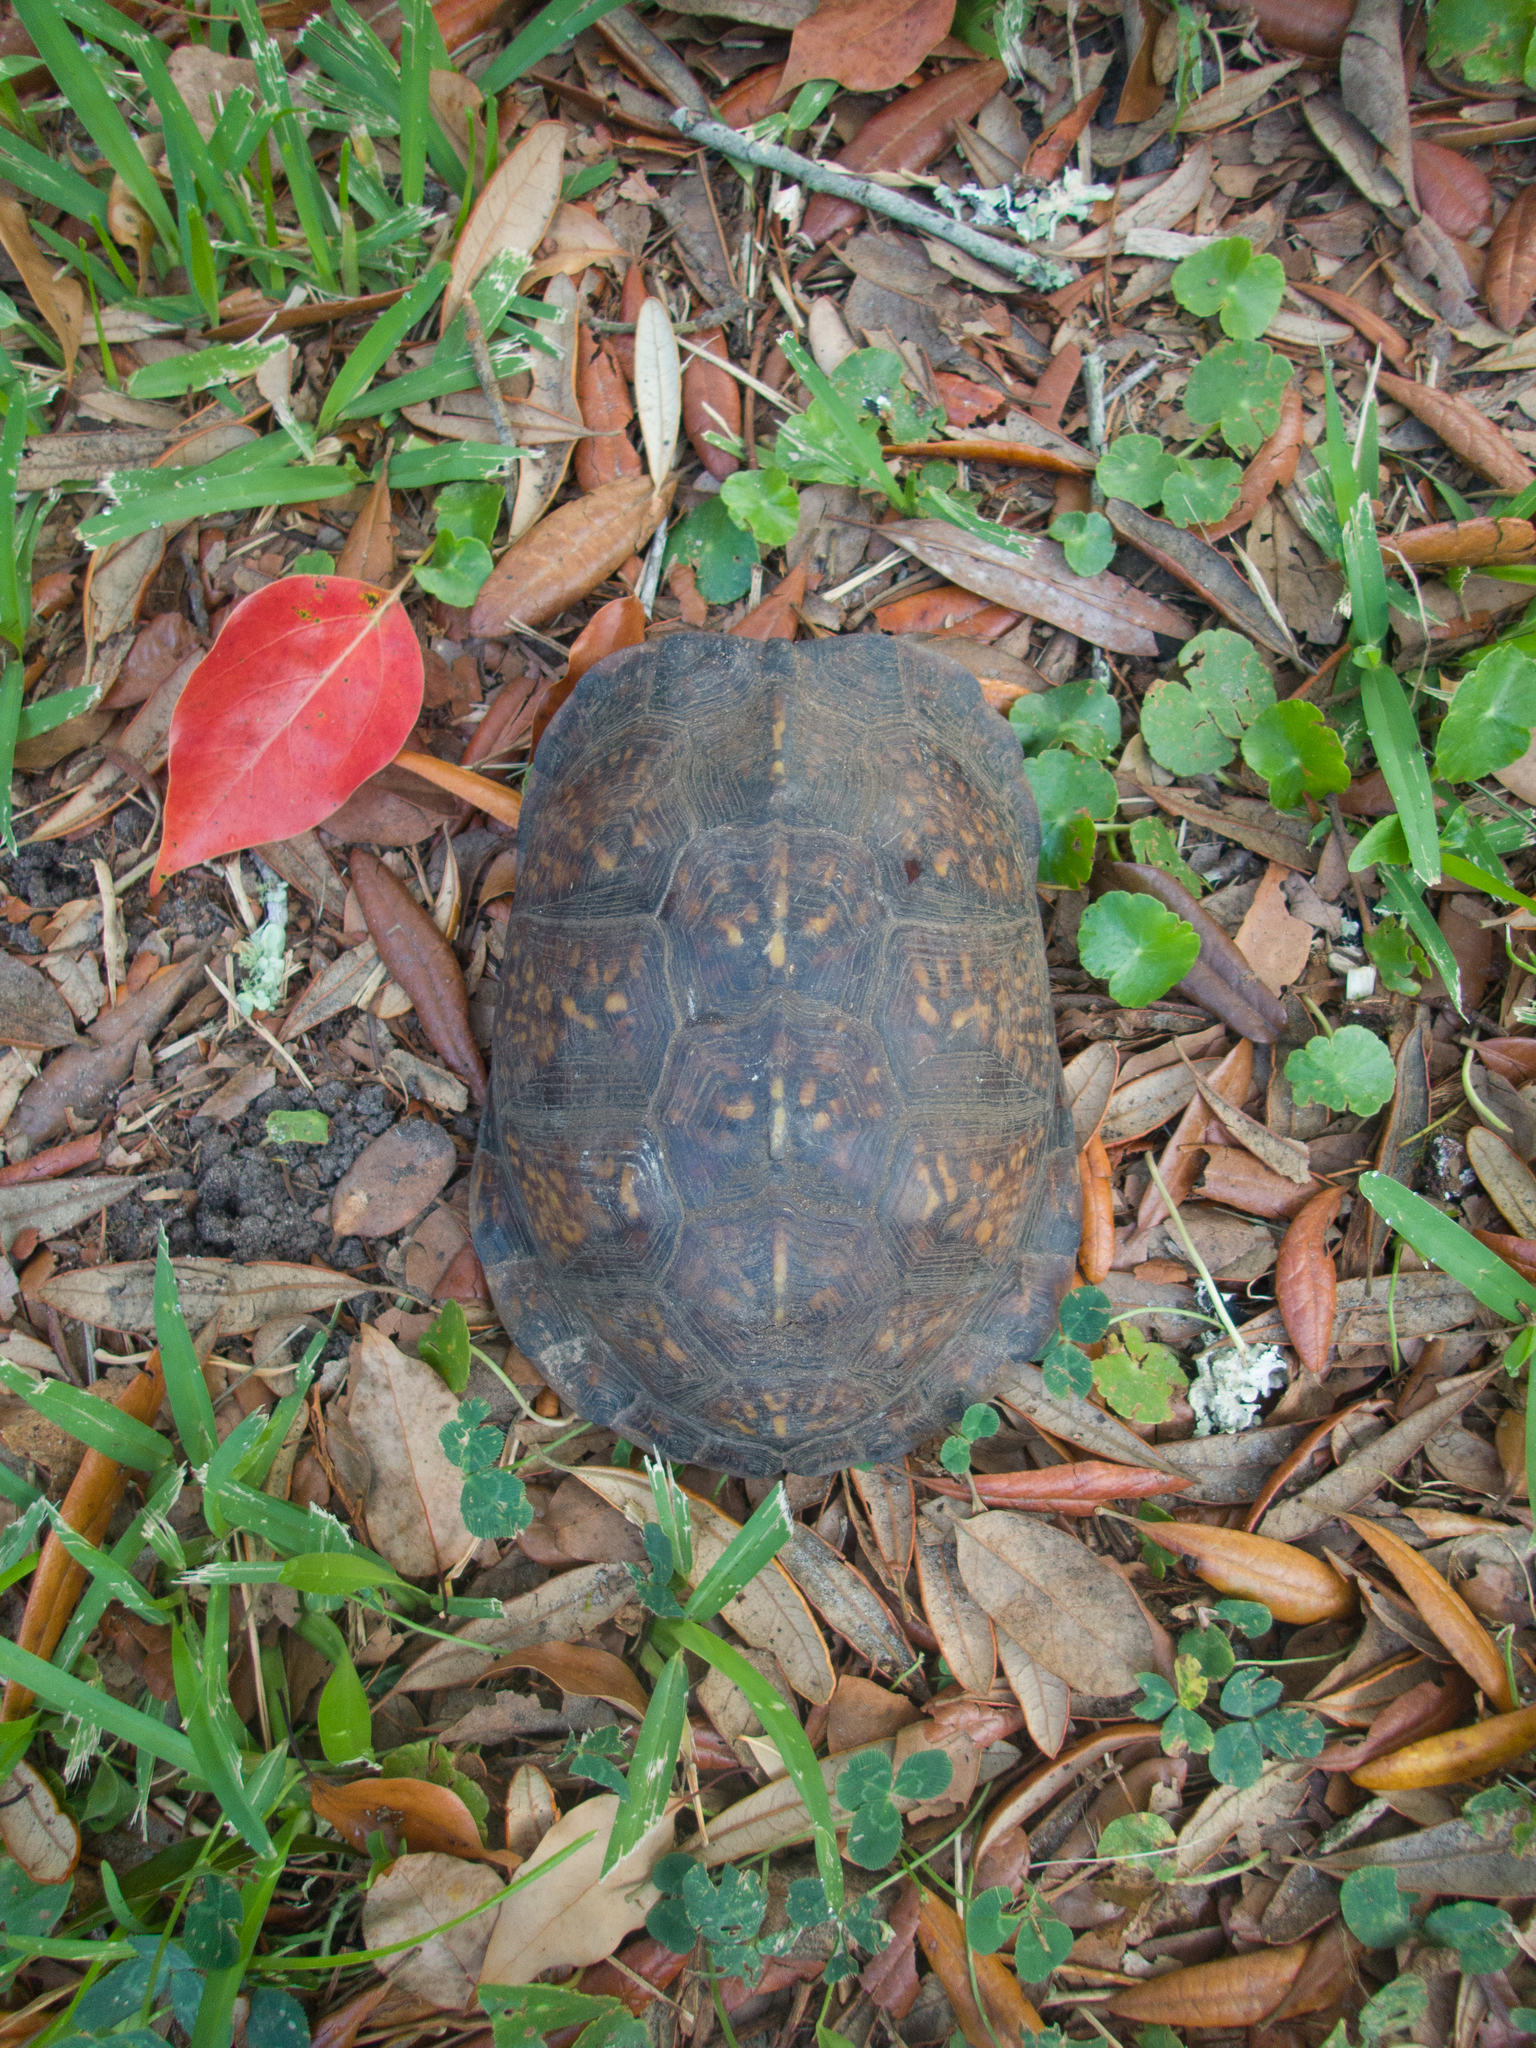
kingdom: Animalia
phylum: Chordata
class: Testudines
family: Emydidae
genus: Terrapene
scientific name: Terrapene carolina
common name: Common box turtle
